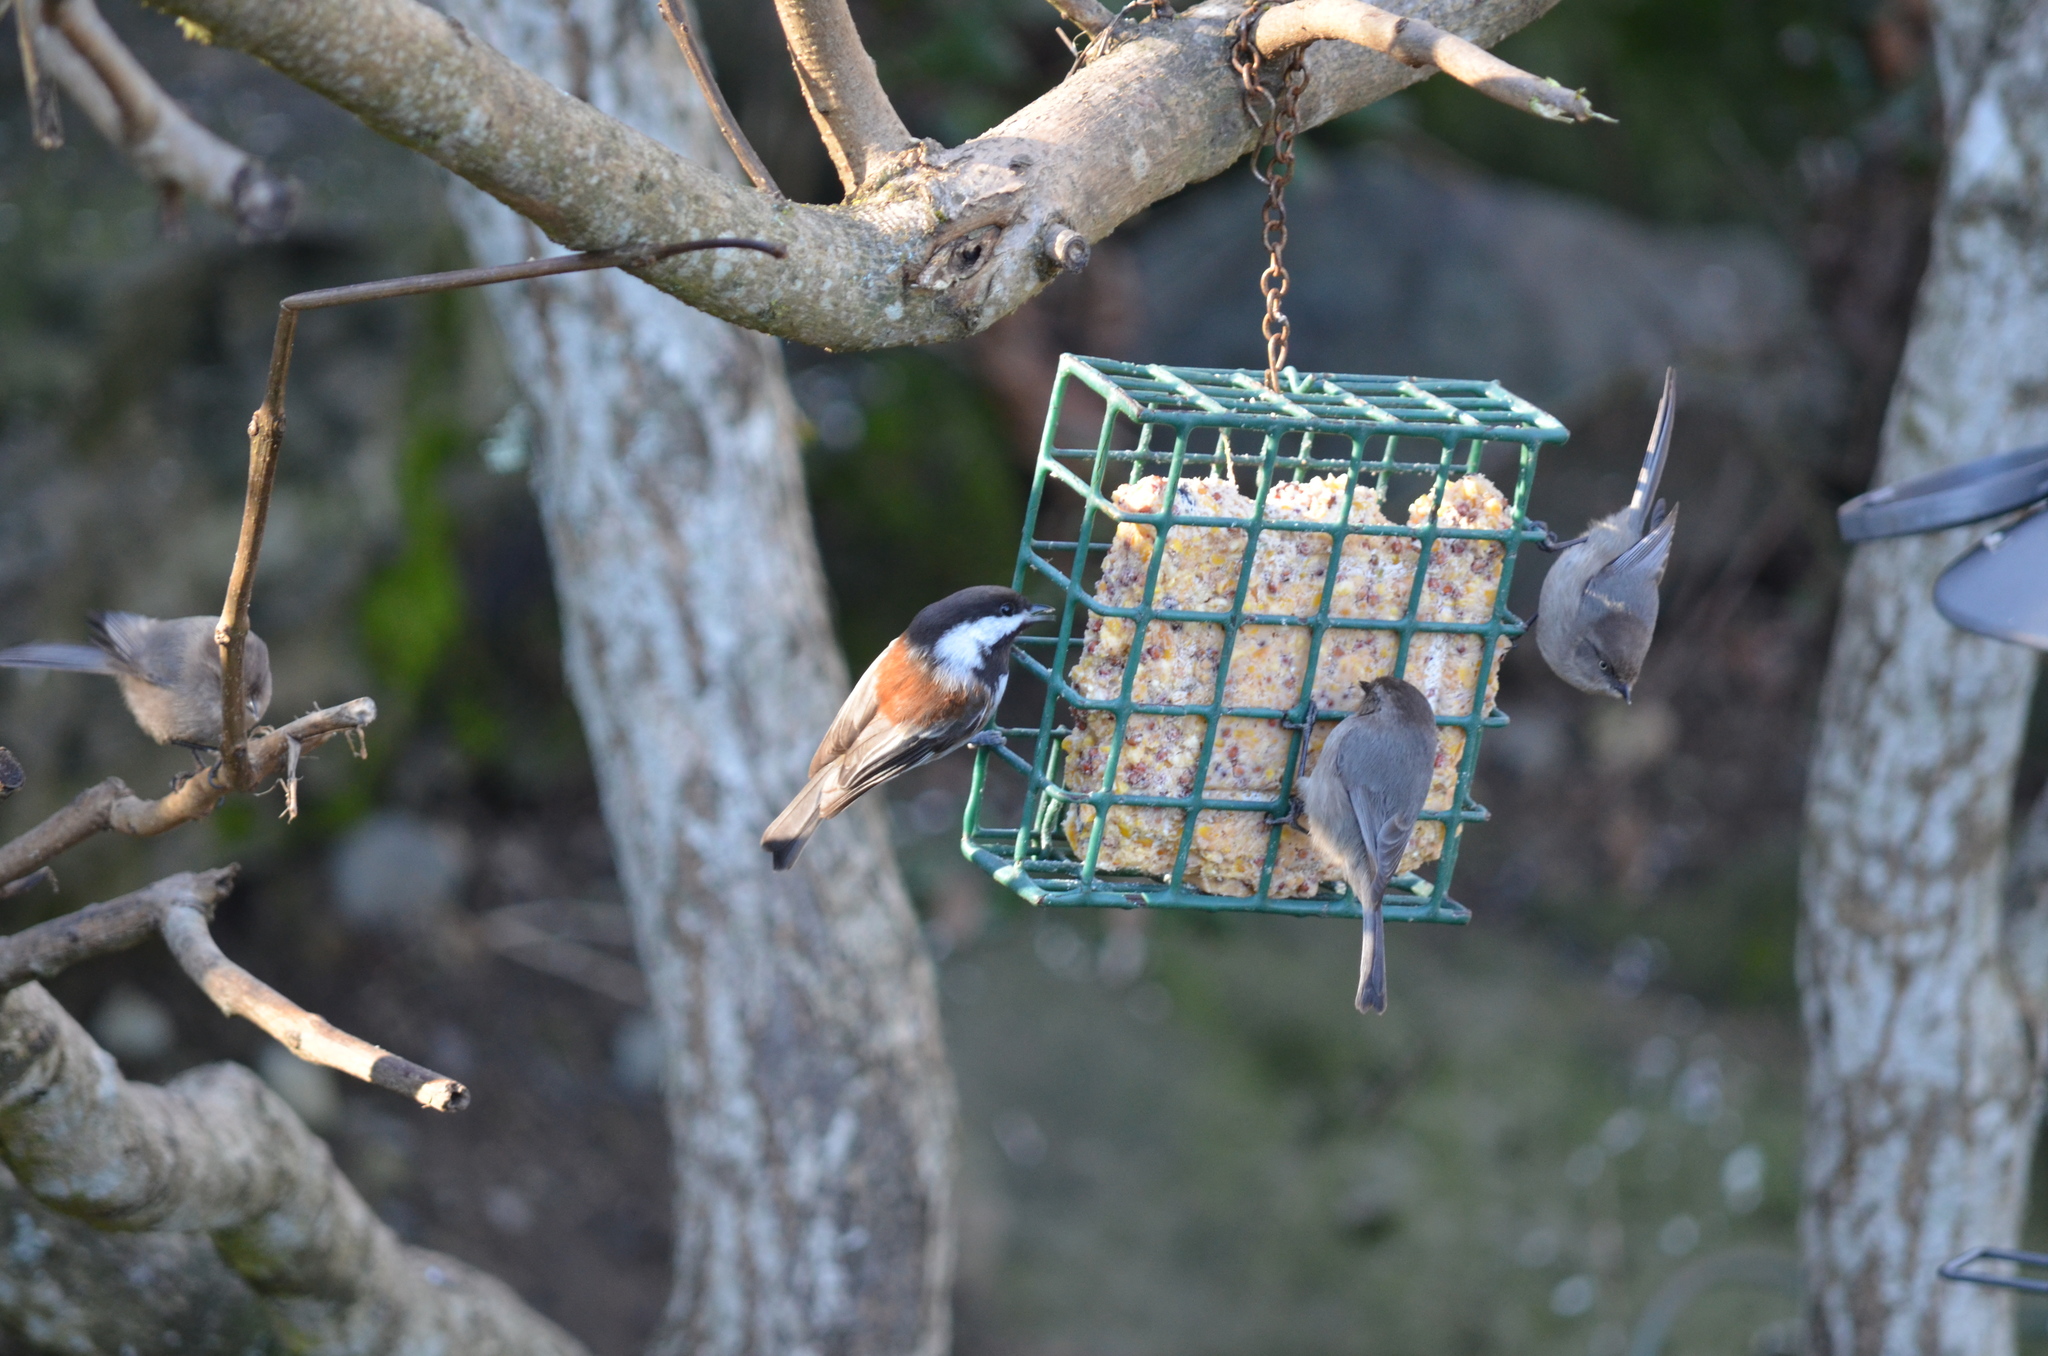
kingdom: Animalia
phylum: Chordata
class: Aves
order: Passeriformes
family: Paridae
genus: Poecile
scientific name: Poecile rufescens
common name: Chestnut-backed chickadee
